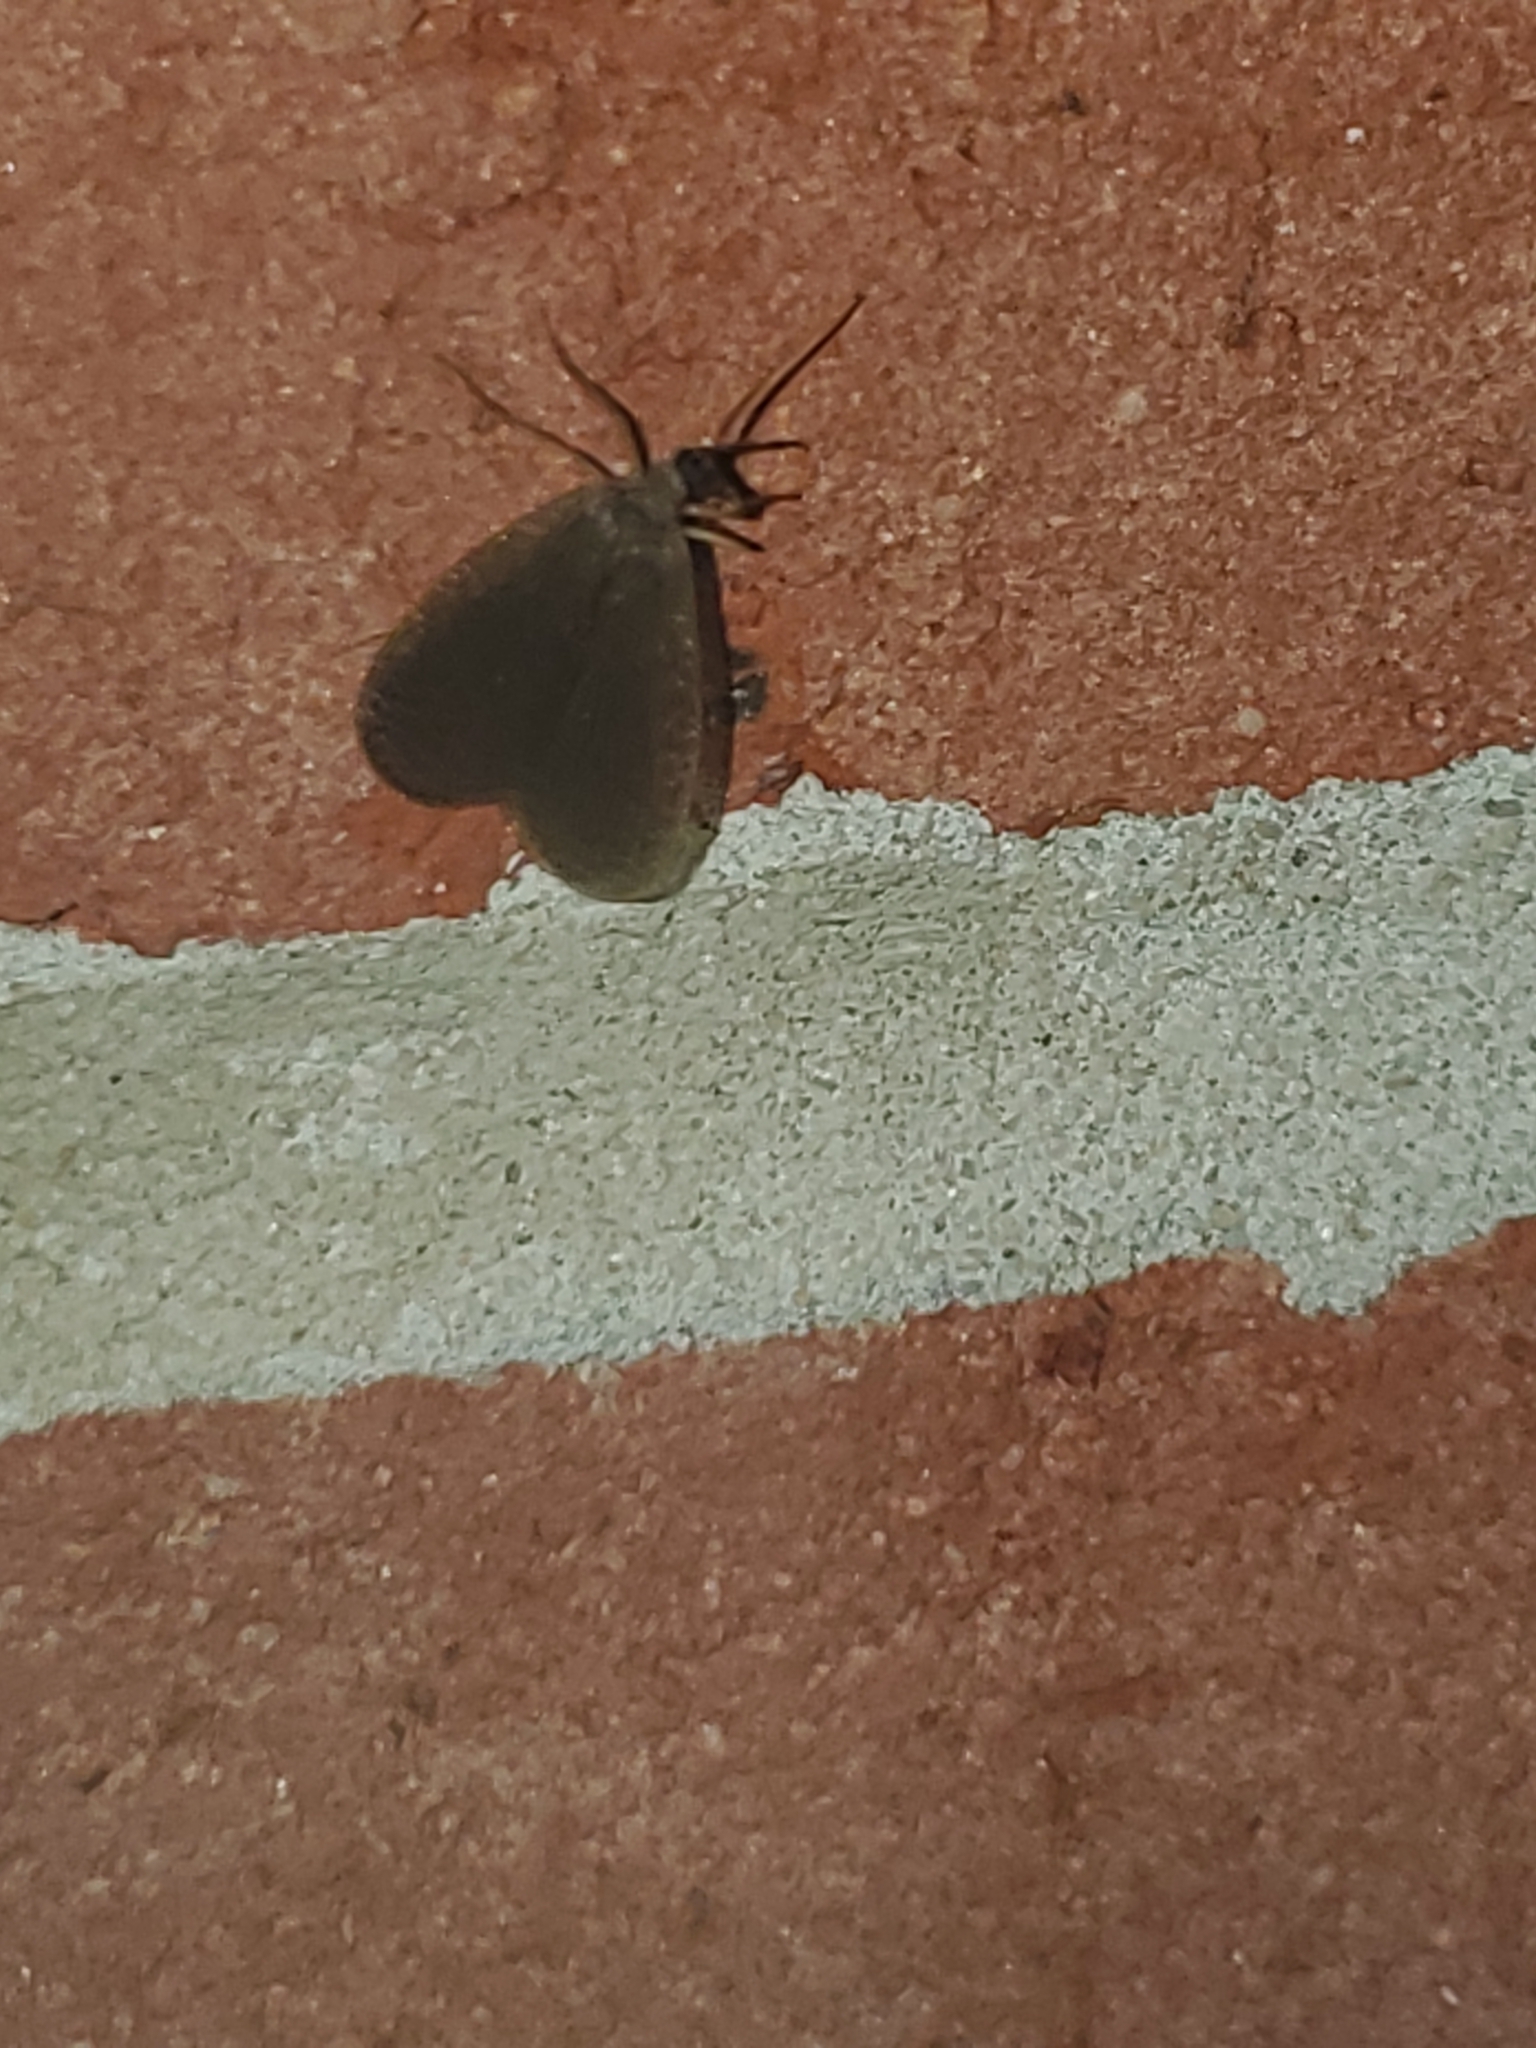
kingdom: Animalia
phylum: Arthropoda
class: Insecta
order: Mecoptera
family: Meropeidae
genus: Merope
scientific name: Merope tuber
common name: Forcepfly
